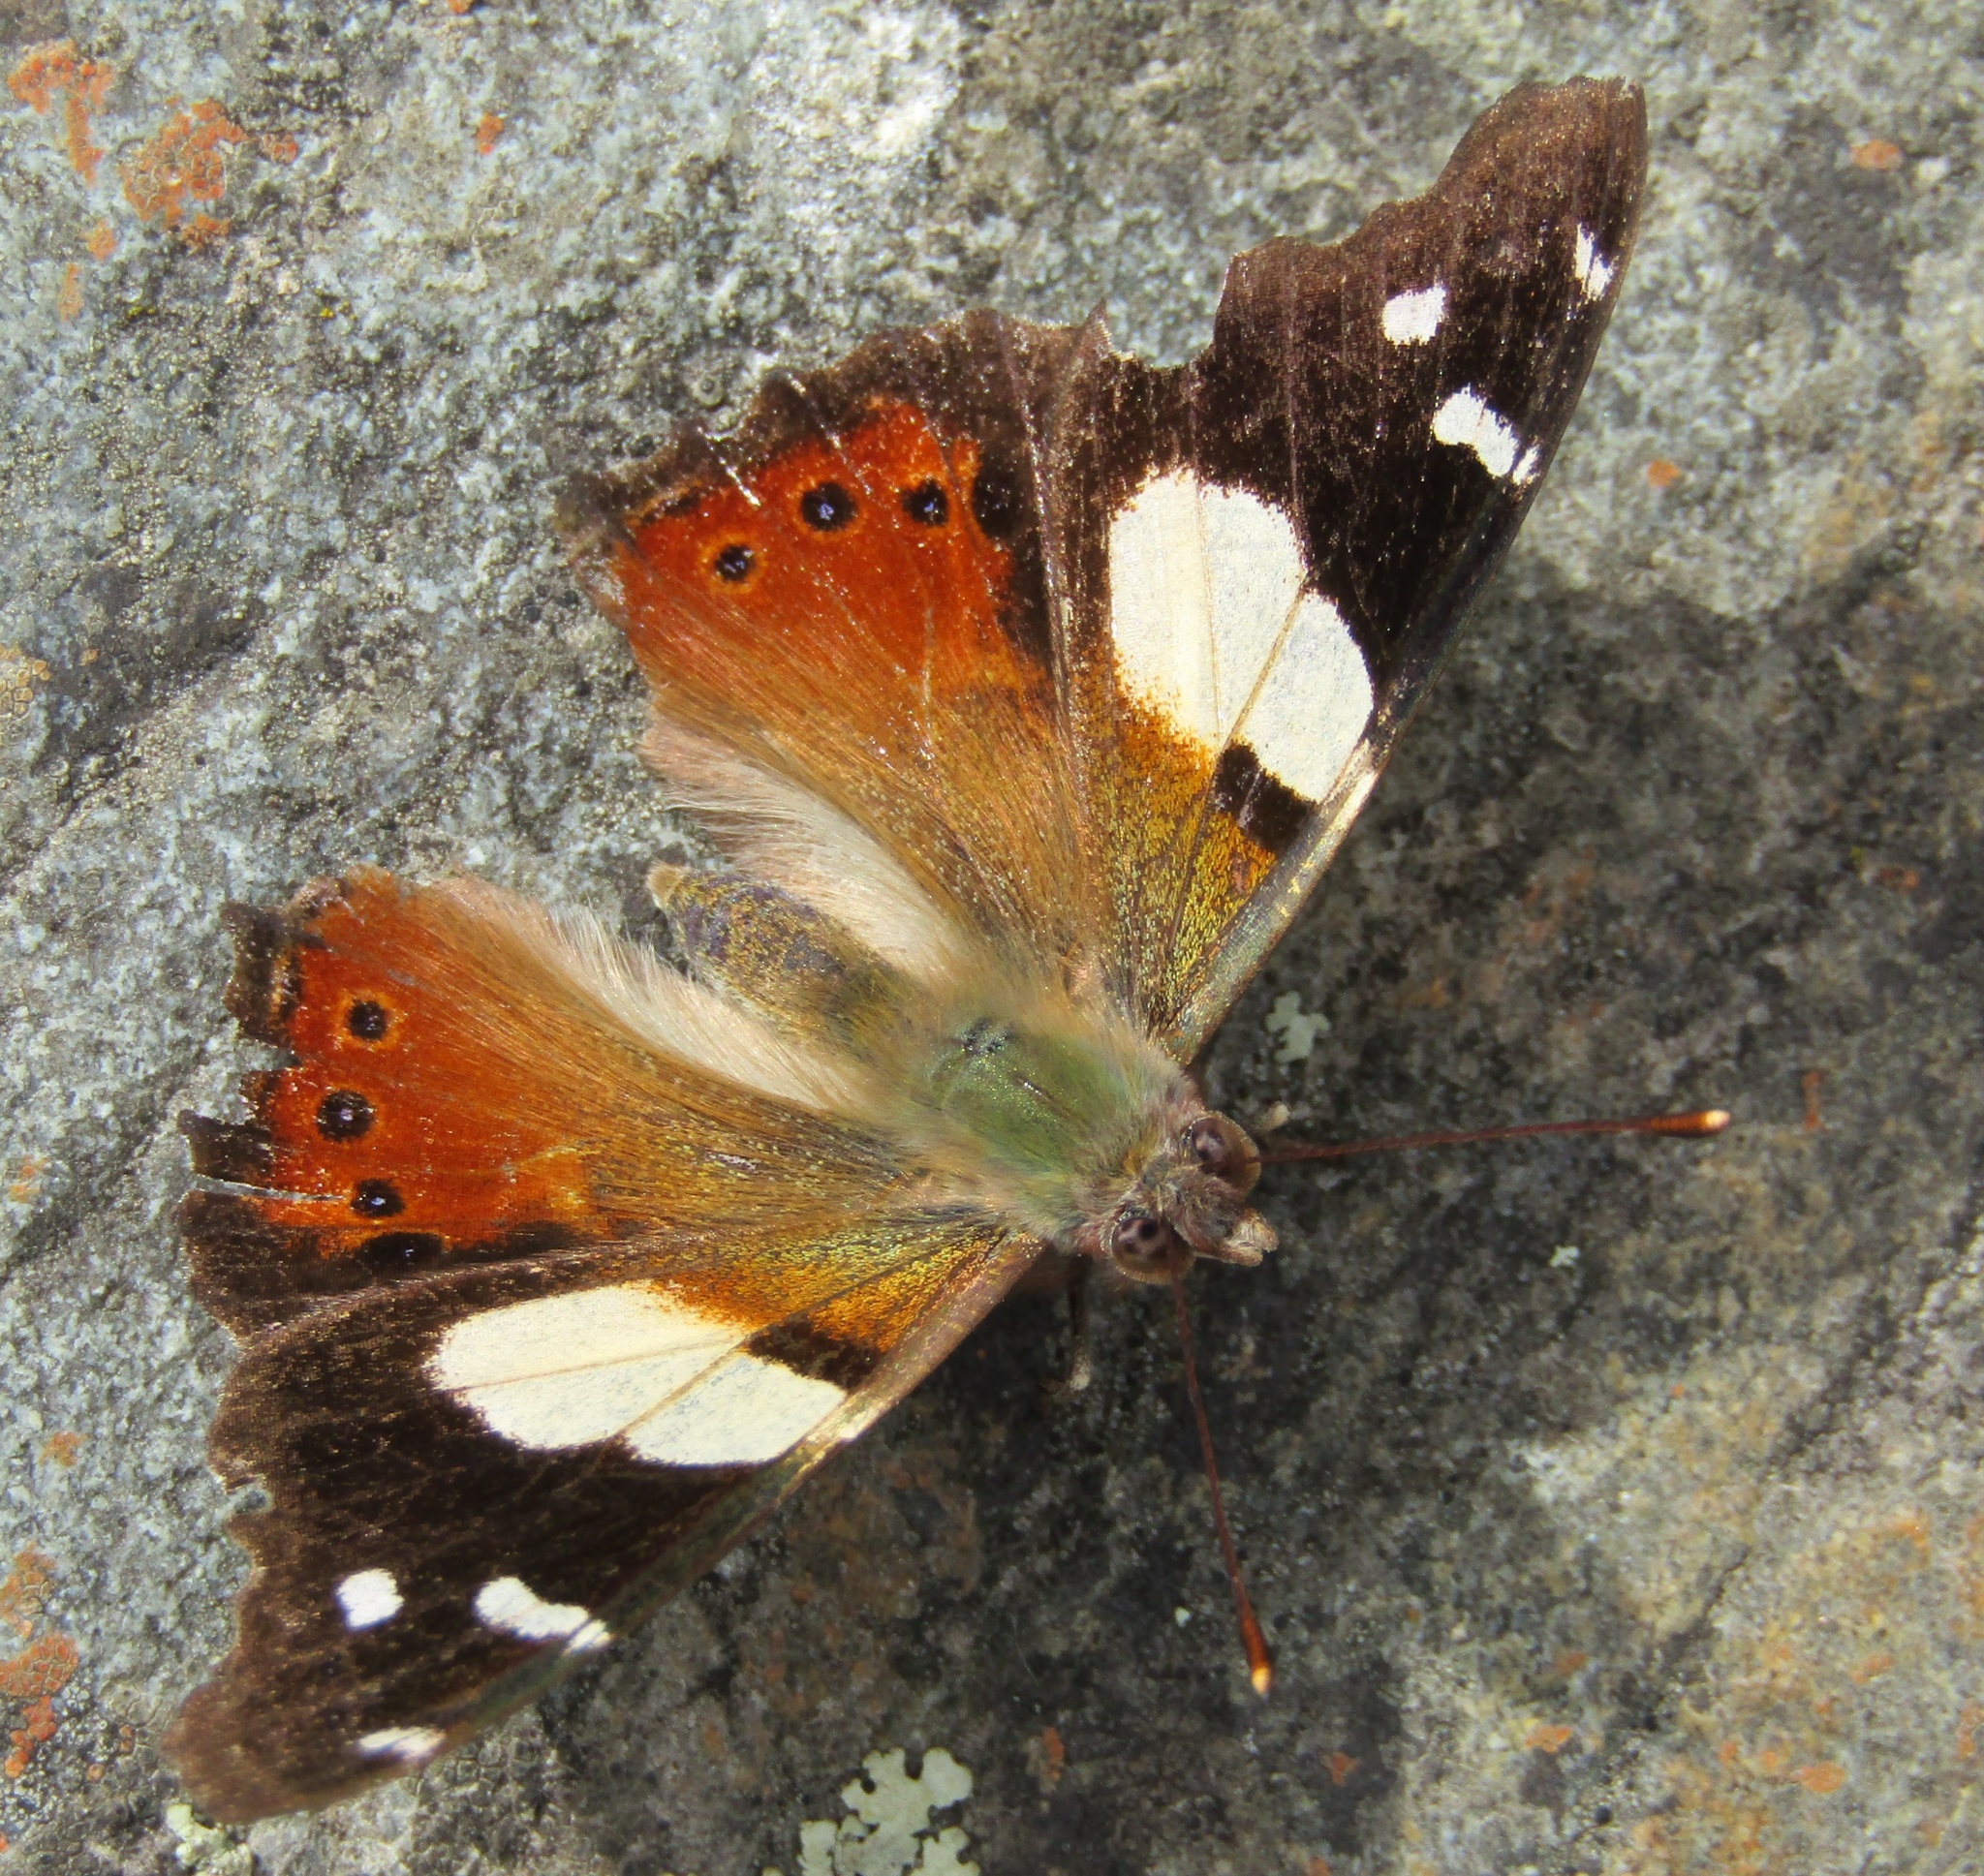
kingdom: Animalia
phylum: Arthropoda
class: Insecta
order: Lepidoptera
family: Nymphalidae
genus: Vanessa
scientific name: Vanessa itea
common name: Yellow admiral
